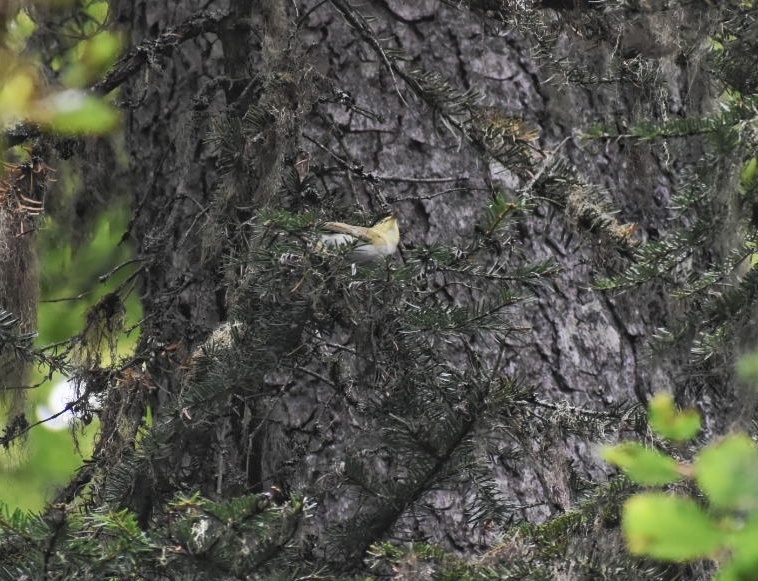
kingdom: Animalia
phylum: Chordata
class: Aves
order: Passeriformes
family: Phylloscopidae
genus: Phylloscopus
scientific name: Phylloscopus sibillatrix
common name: Wood warbler
